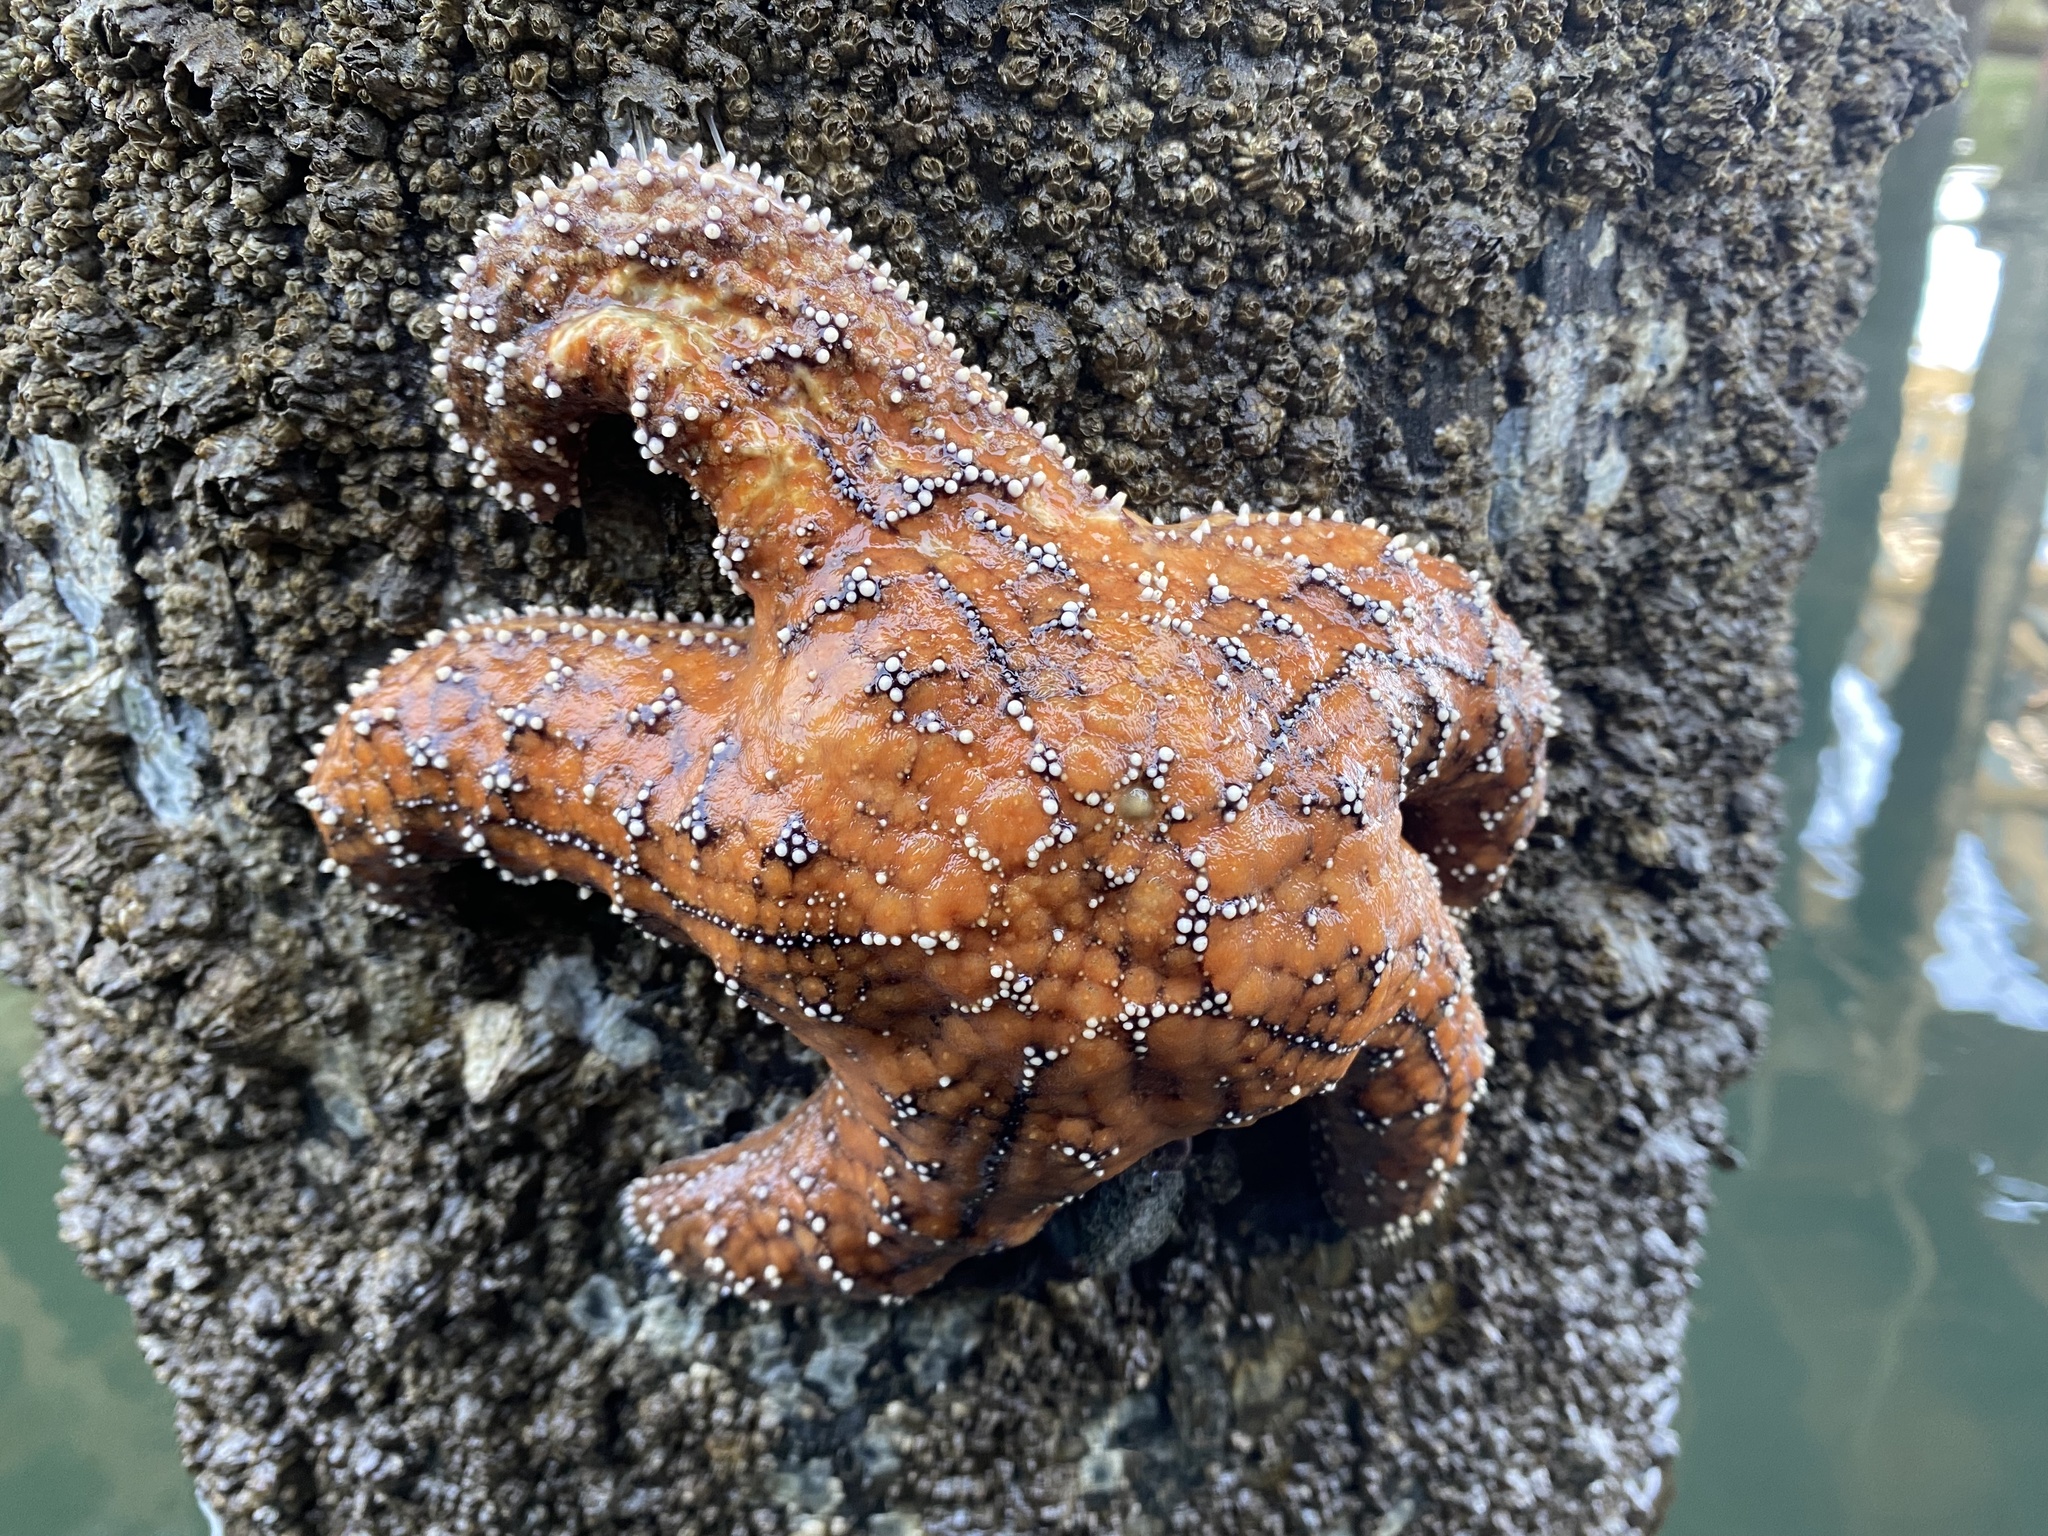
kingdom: Animalia
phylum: Echinodermata
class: Asteroidea
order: Forcipulatida
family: Asteriidae
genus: Pisaster
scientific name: Pisaster ochraceus
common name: Ochre stars
